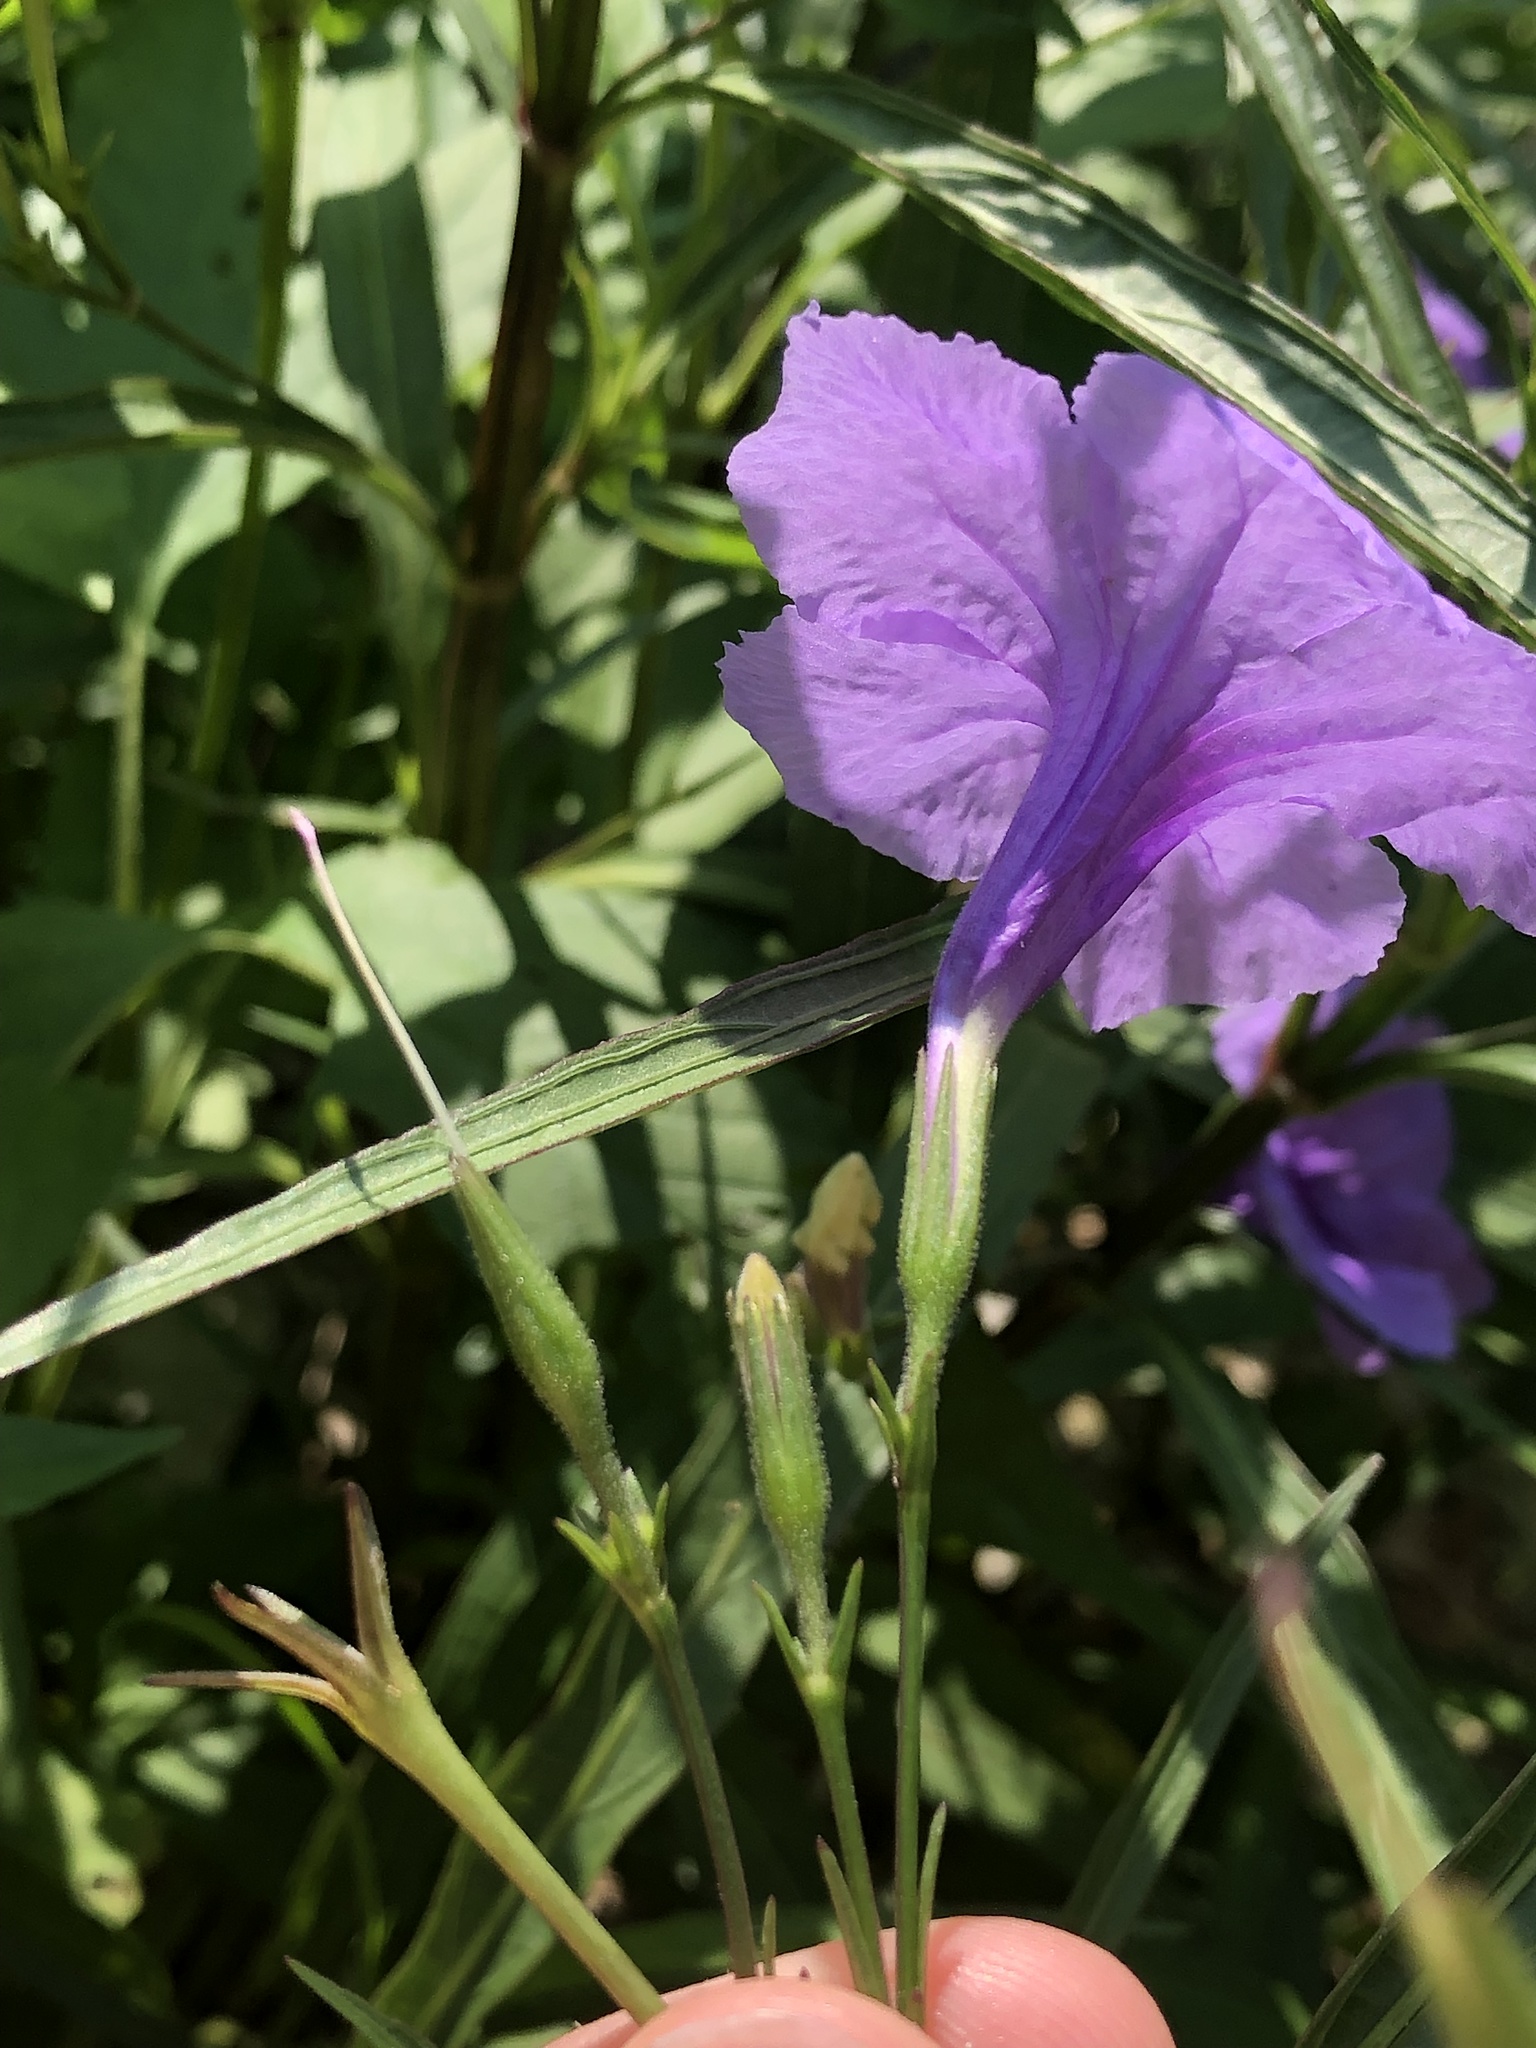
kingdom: Plantae
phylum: Tracheophyta
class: Magnoliopsida
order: Lamiales
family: Acanthaceae
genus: Ruellia
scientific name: Ruellia simplex
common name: Softseed wild petunia
